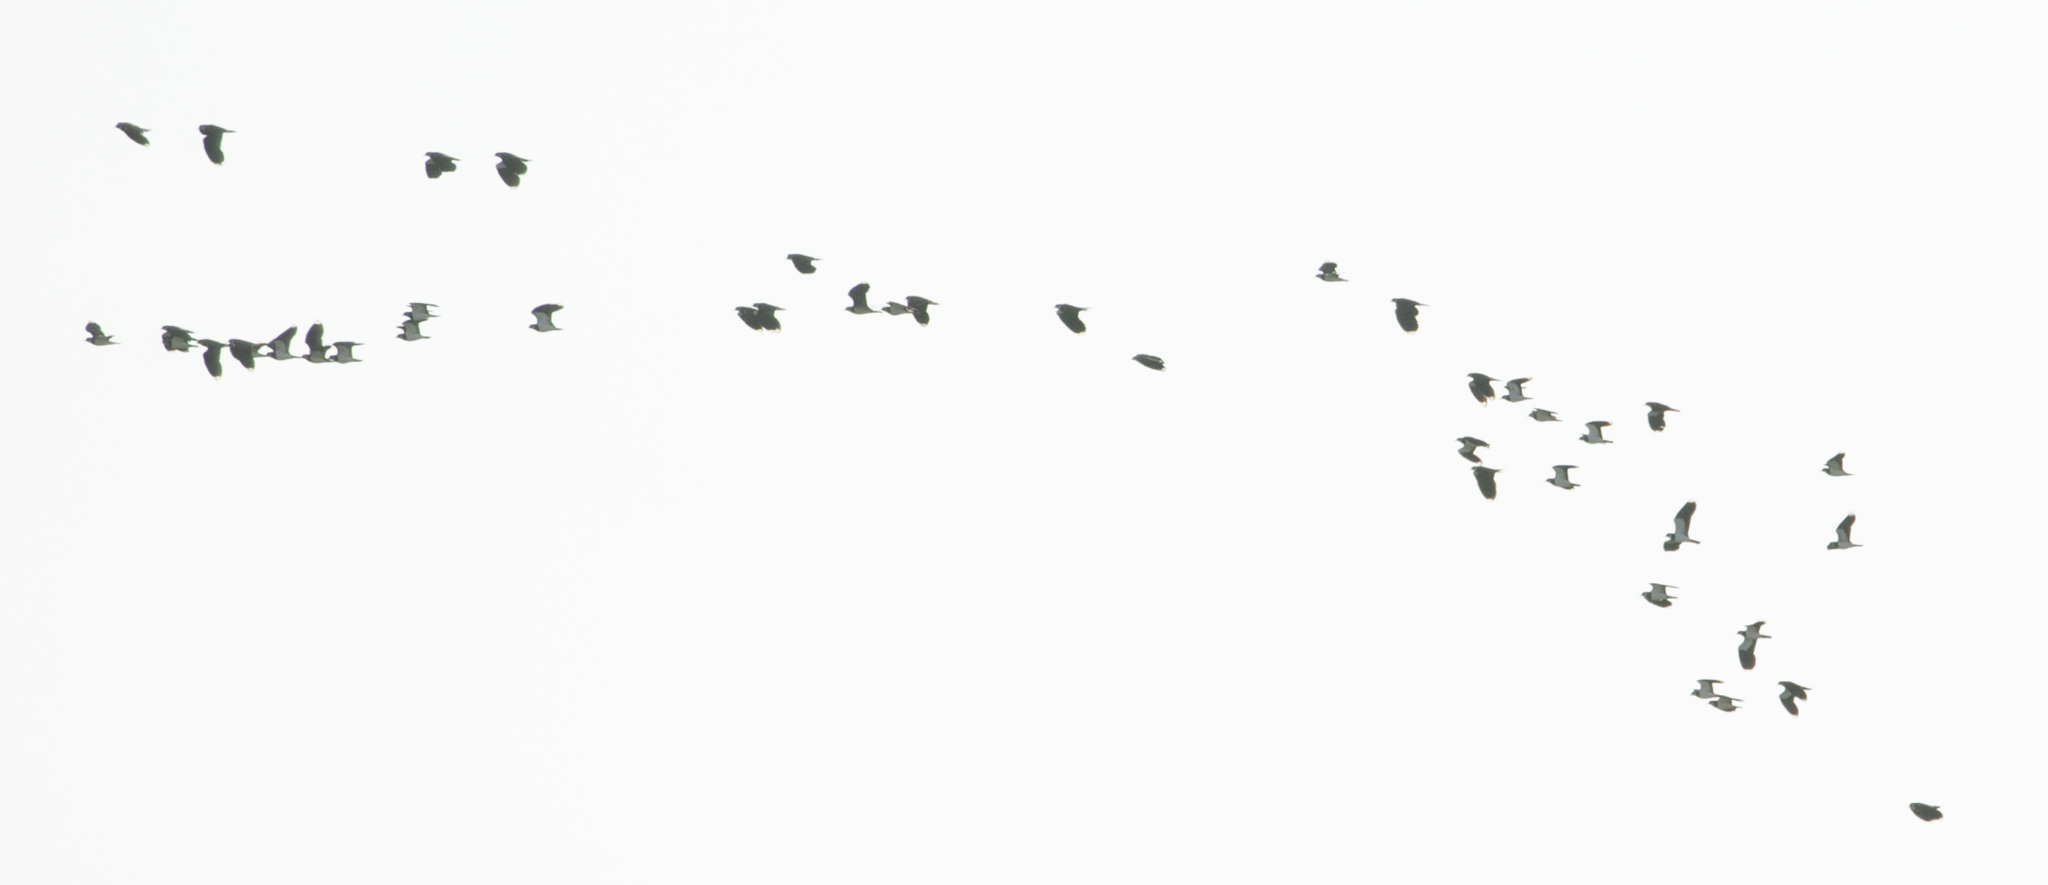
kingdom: Animalia
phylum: Chordata
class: Aves
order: Charadriiformes
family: Charadriidae
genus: Vanellus
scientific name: Vanellus vanellus
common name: Northern lapwing
